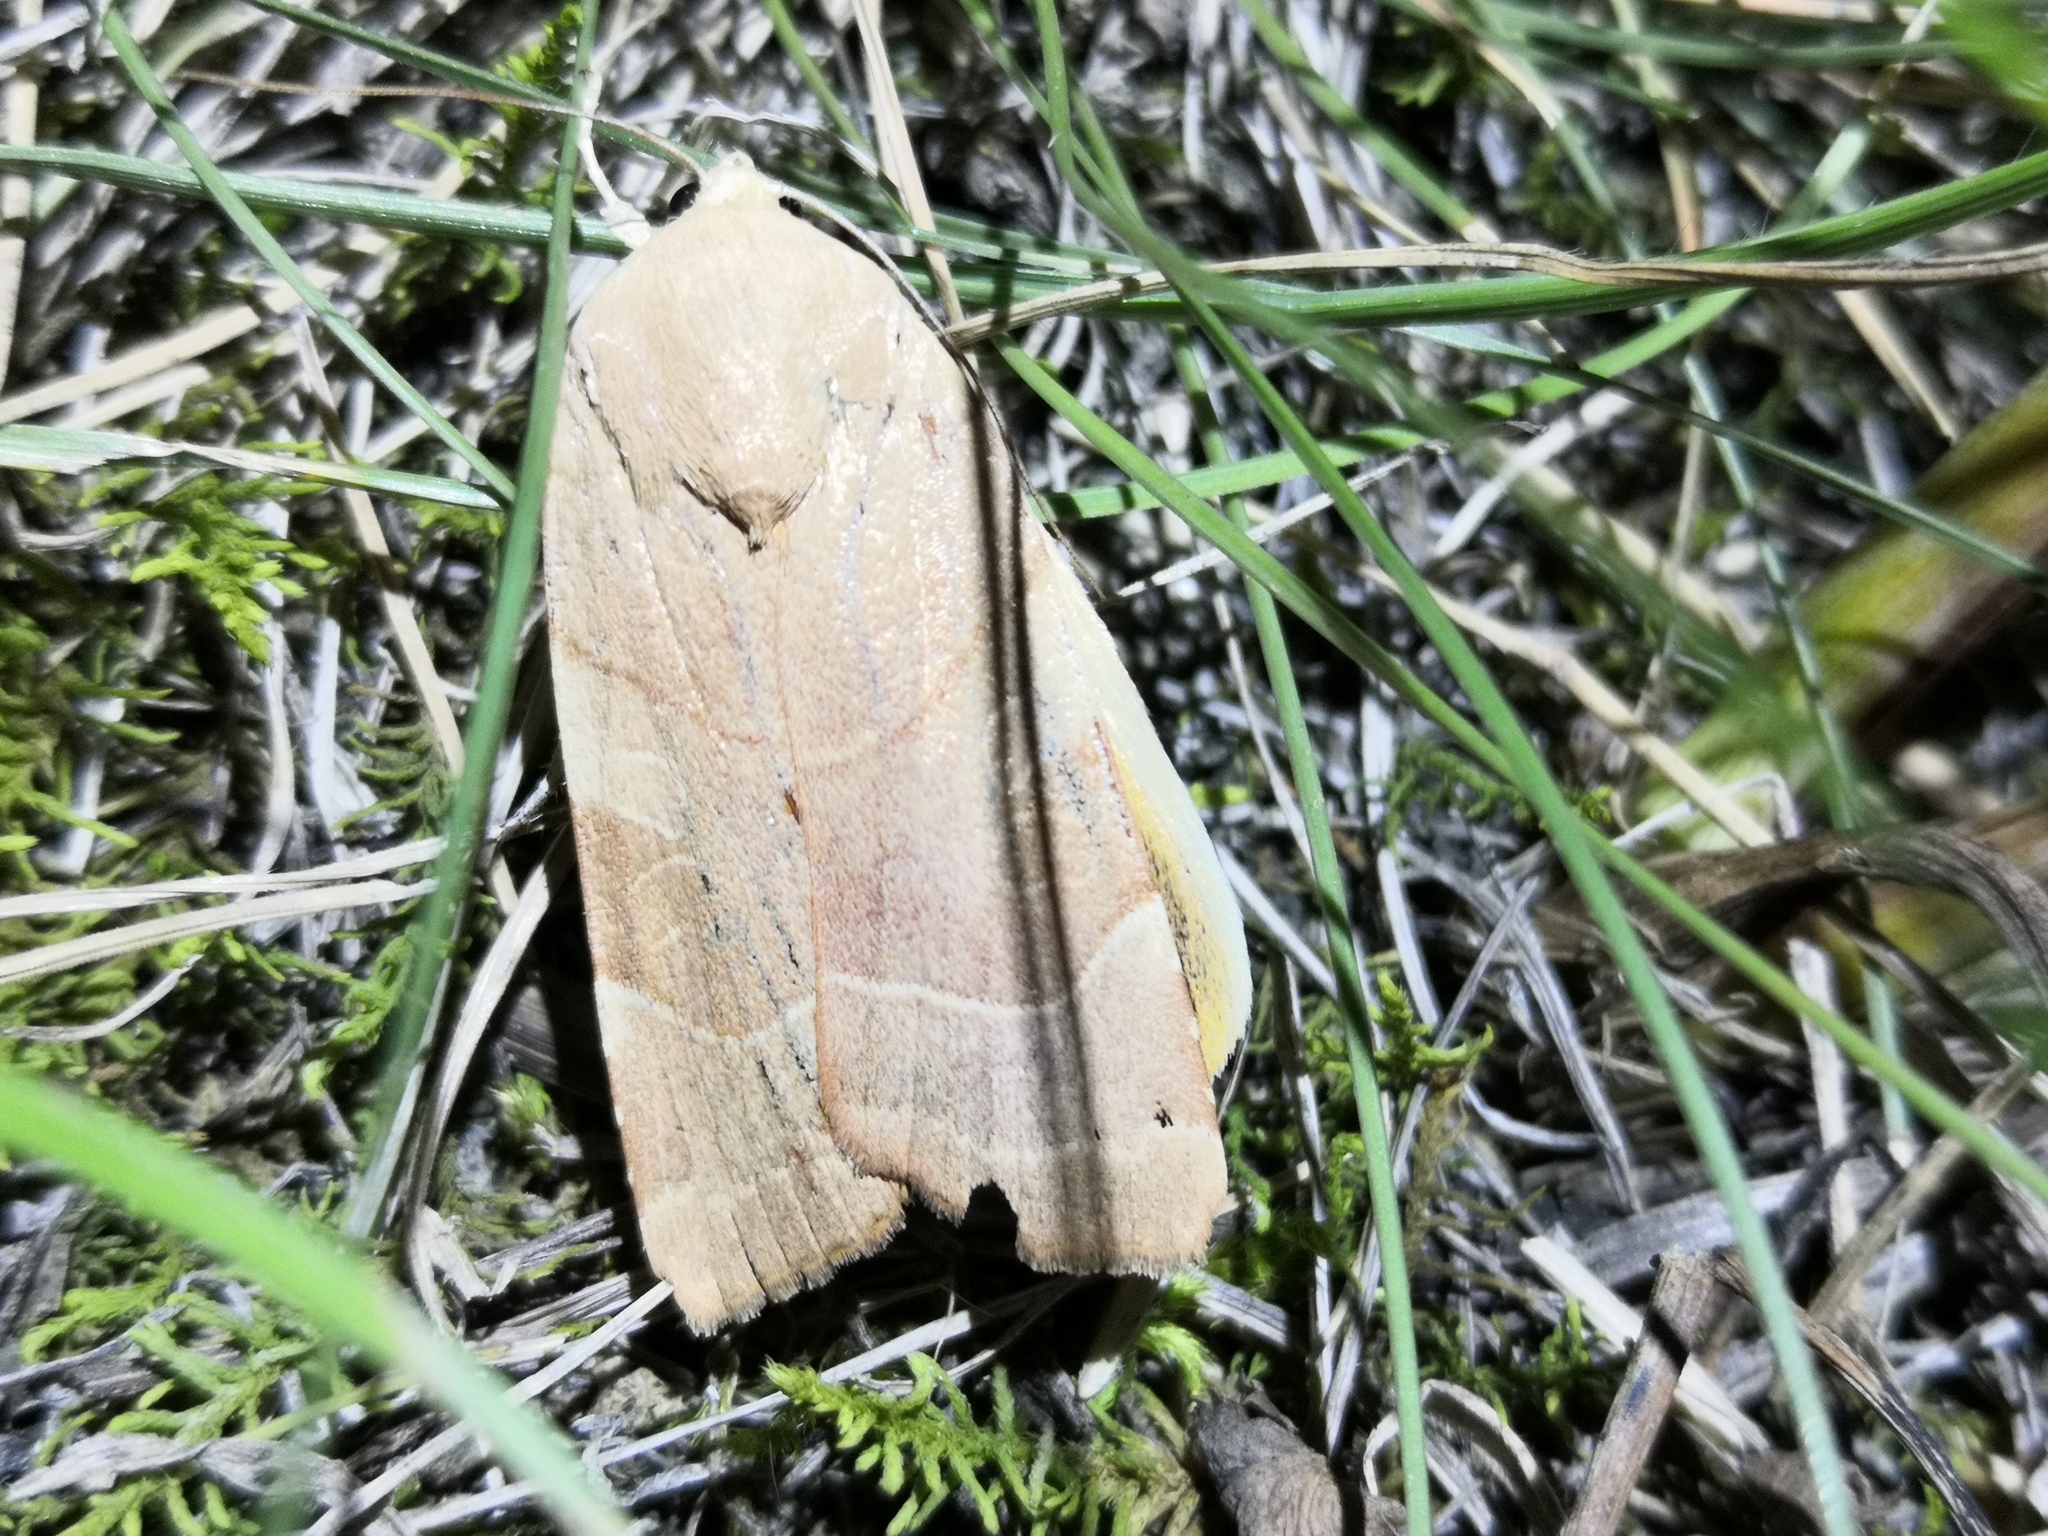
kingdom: Animalia
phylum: Arthropoda
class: Insecta
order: Lepidoptera
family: Noctuidae
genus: Noctua
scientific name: Noctua fimbriata
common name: Broad-bordered yellow underwing
